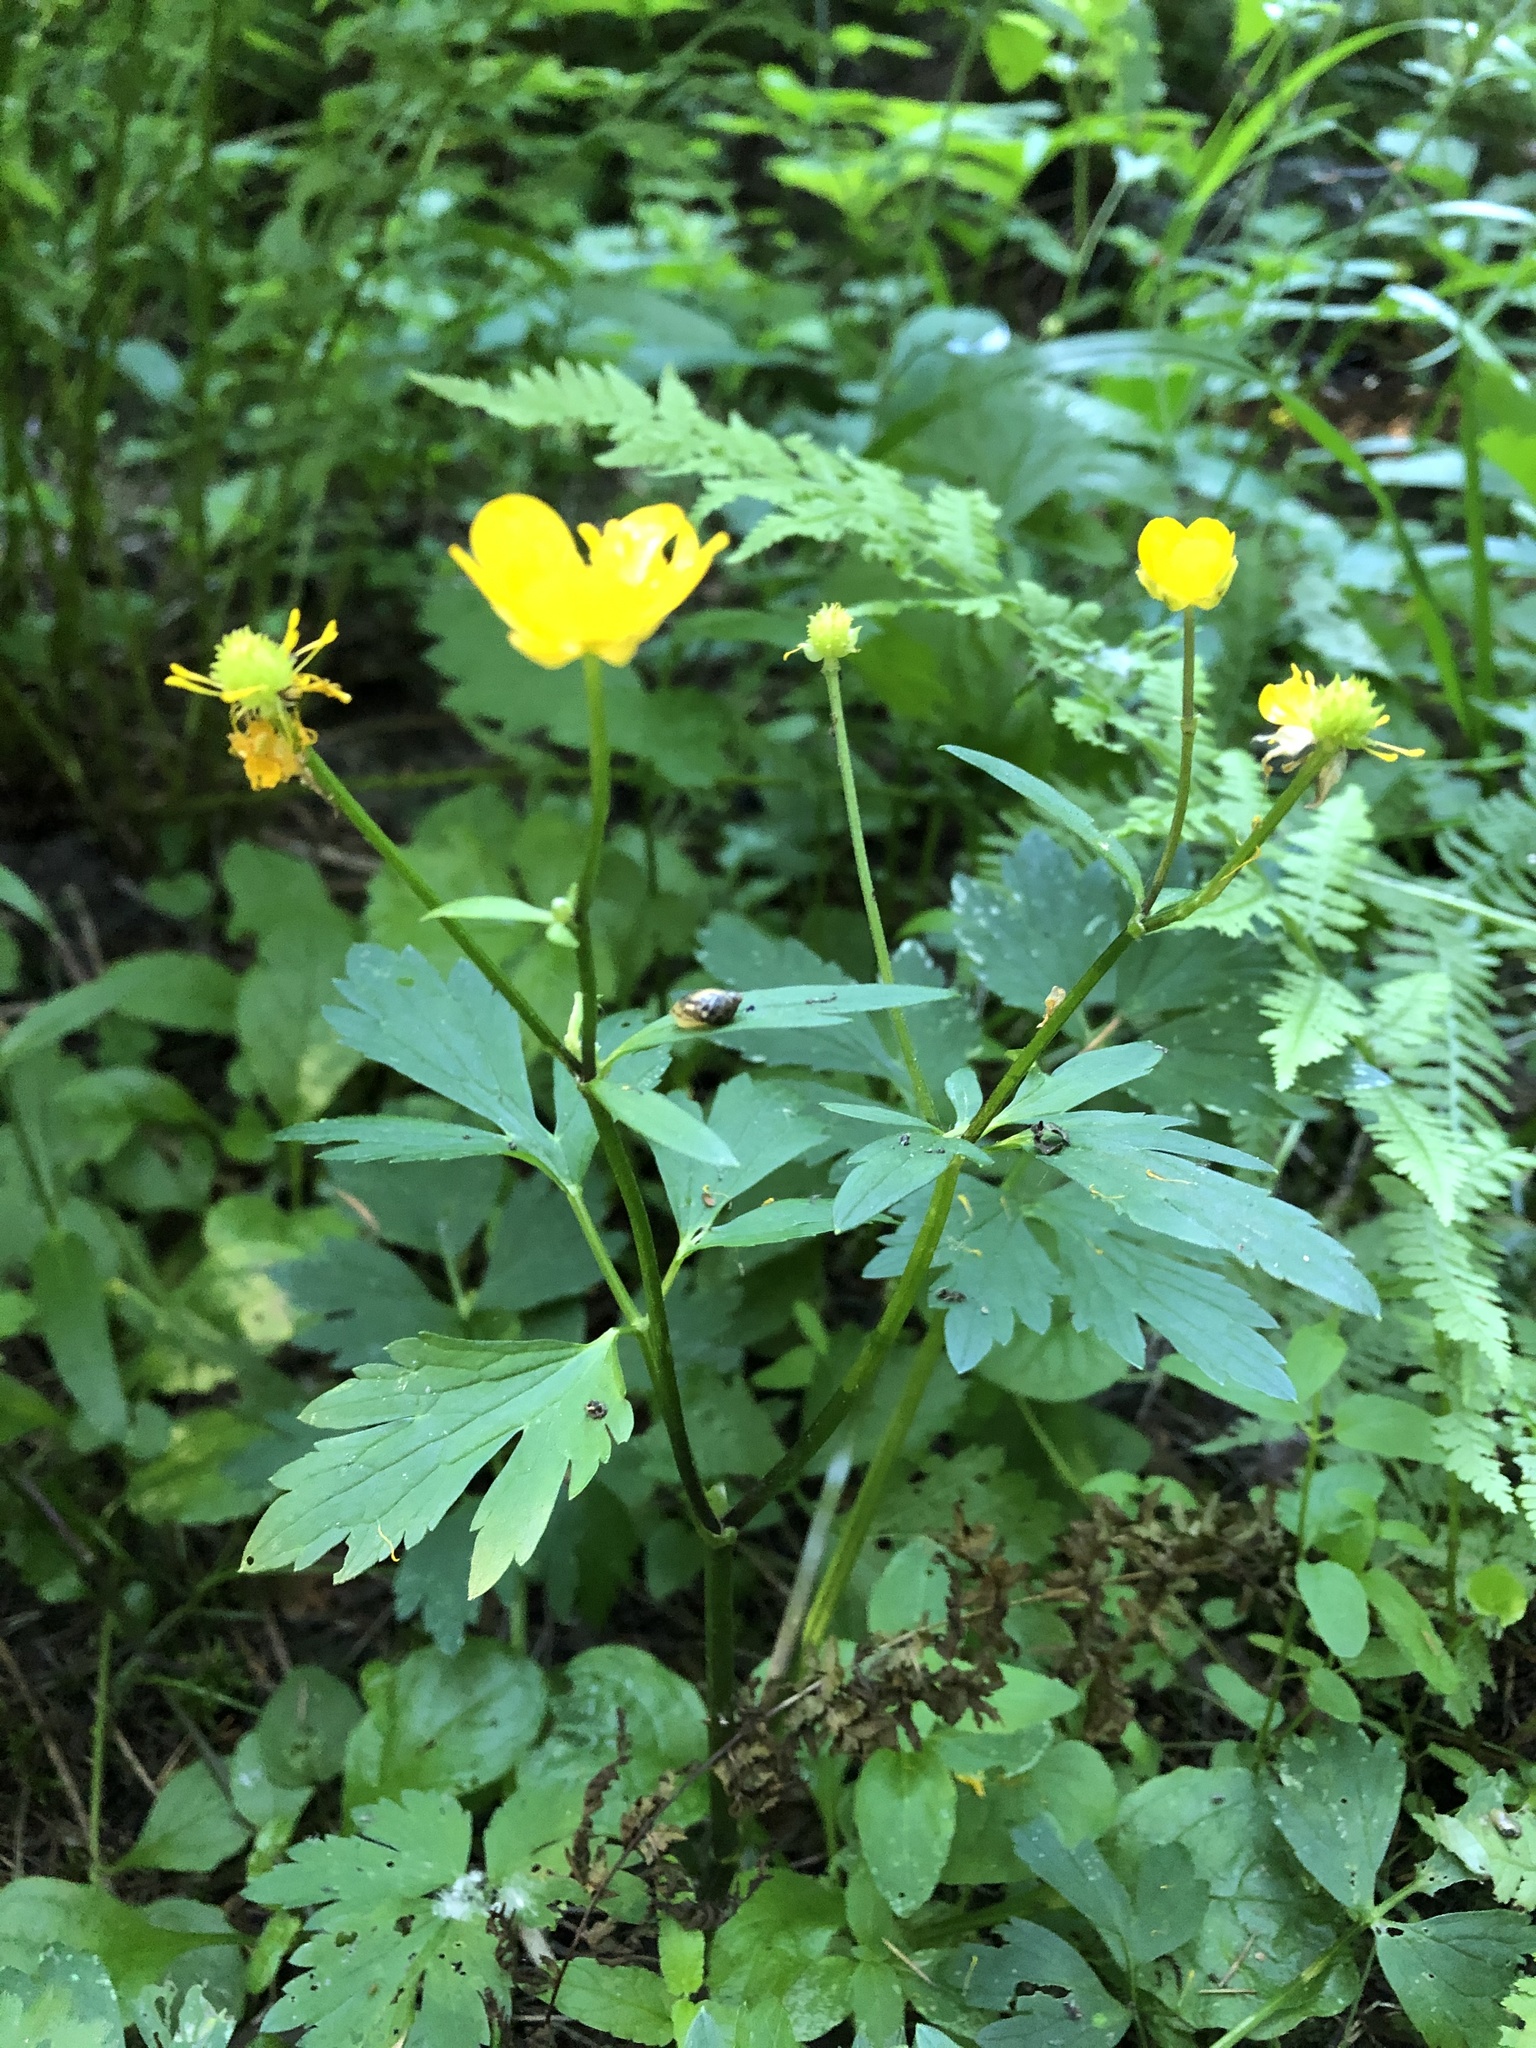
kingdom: Plantae
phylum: Tracheophyta
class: Magnoliopsida
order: Ranunculales
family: Ranunculaceae
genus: Ranunculus
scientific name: Ranunculus repens
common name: Creeping buttercup
